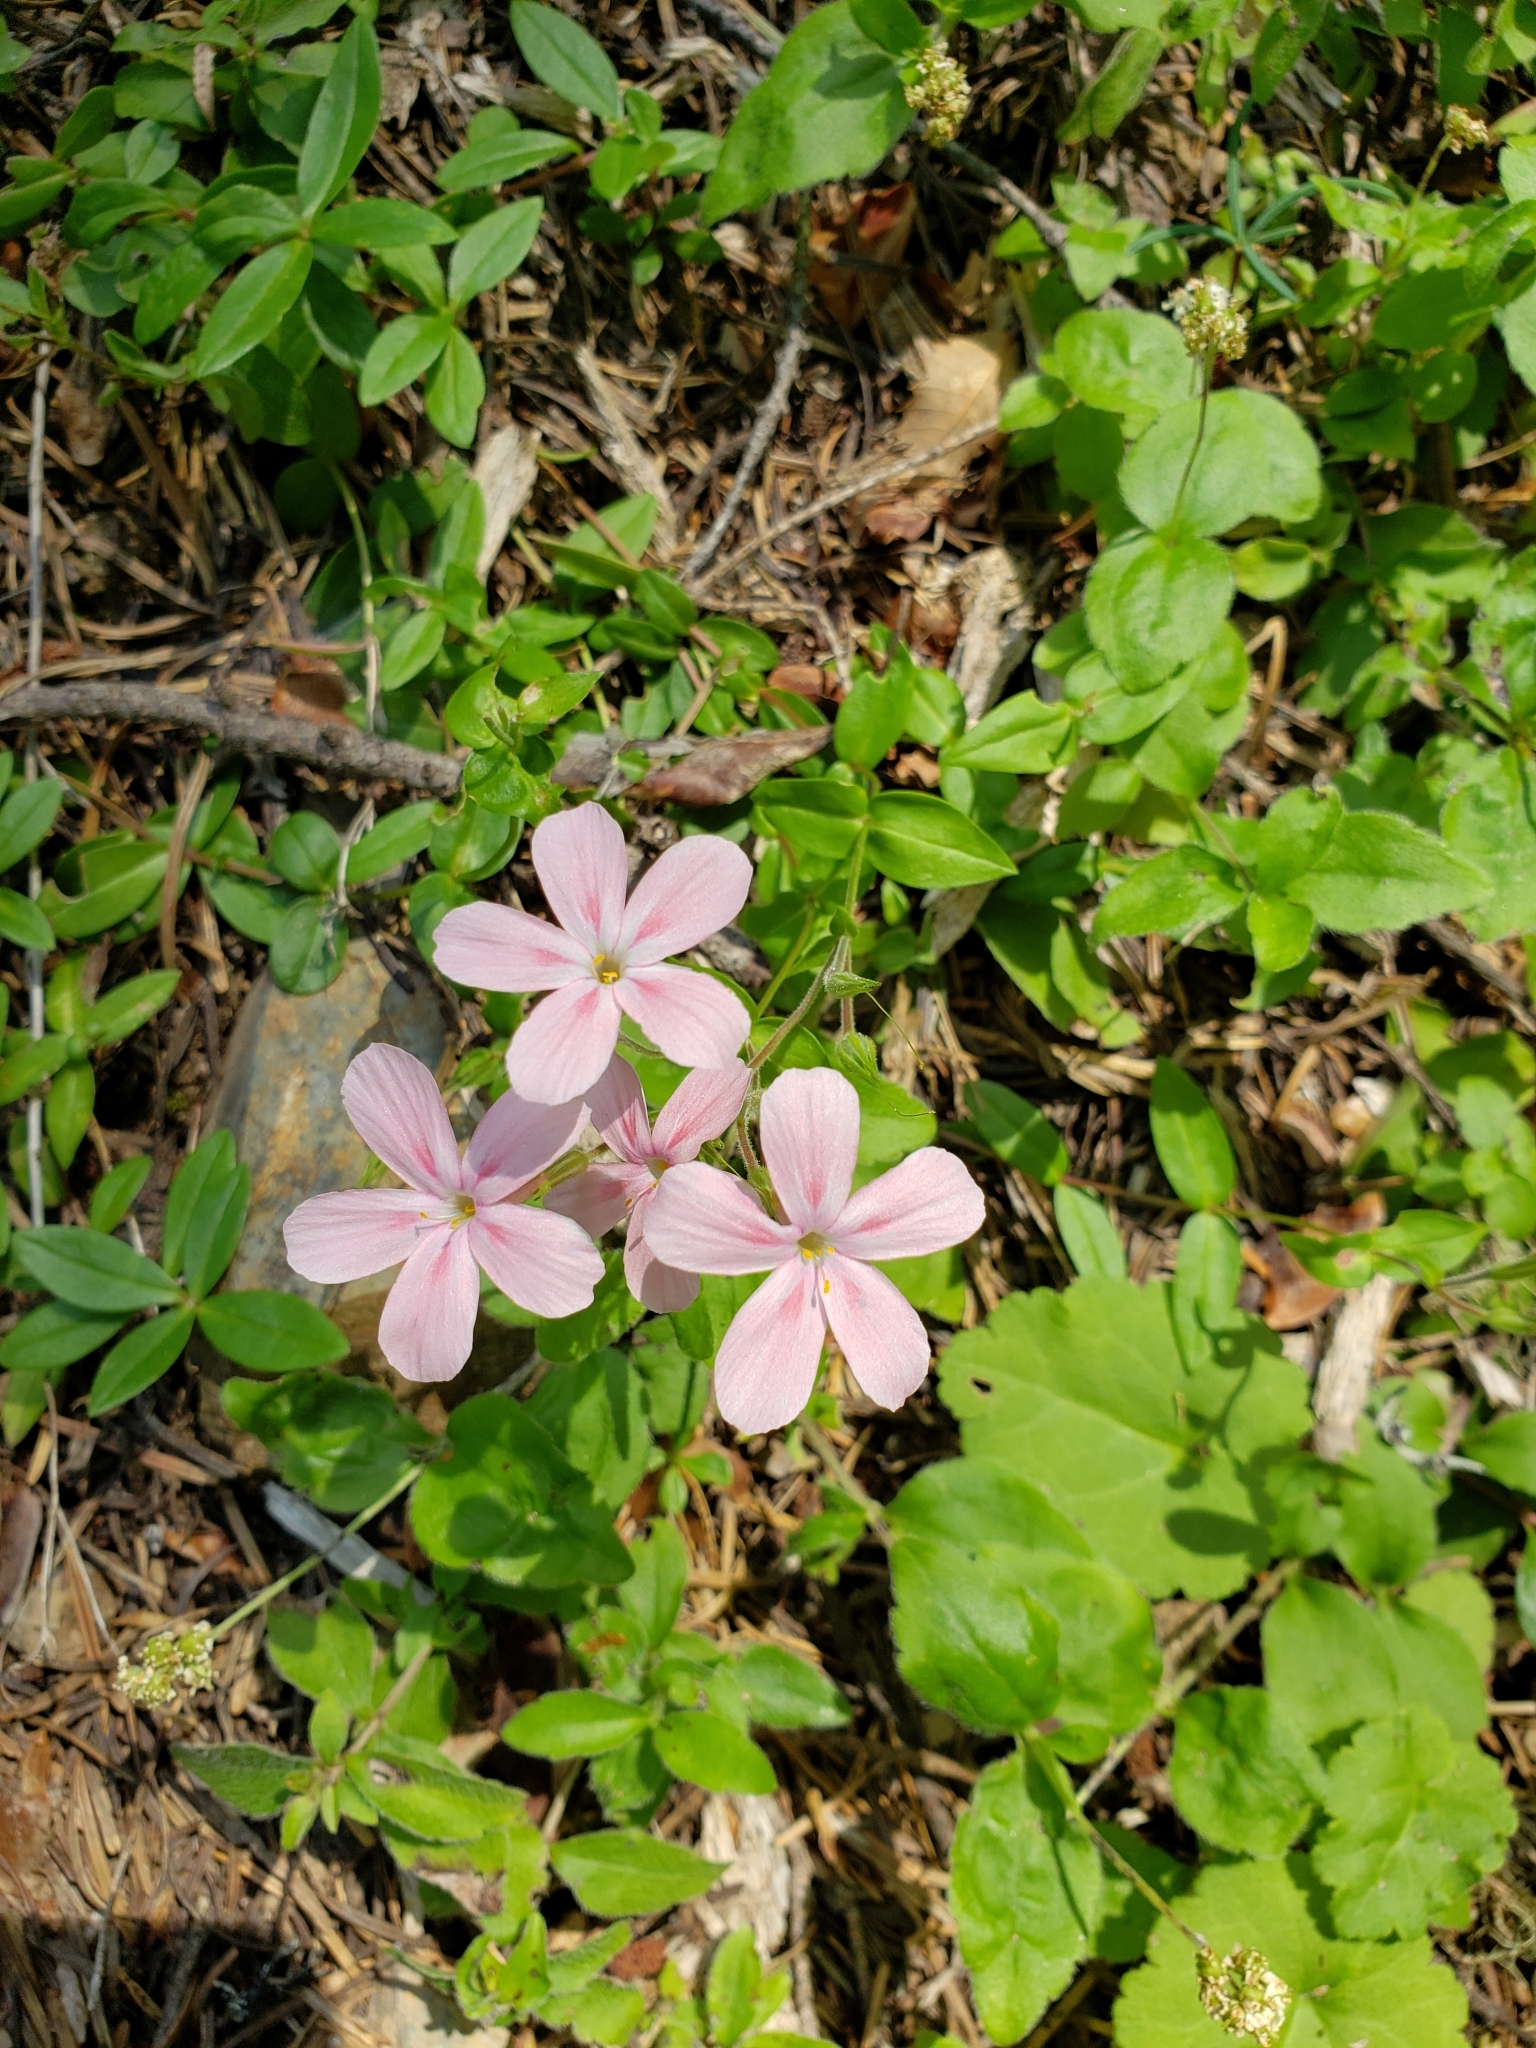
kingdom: Plantae
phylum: Tracheophyta
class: Magnoliopsida
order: Ericales
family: Polemoniaceae
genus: Phlox
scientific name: Phlox adsurgens
